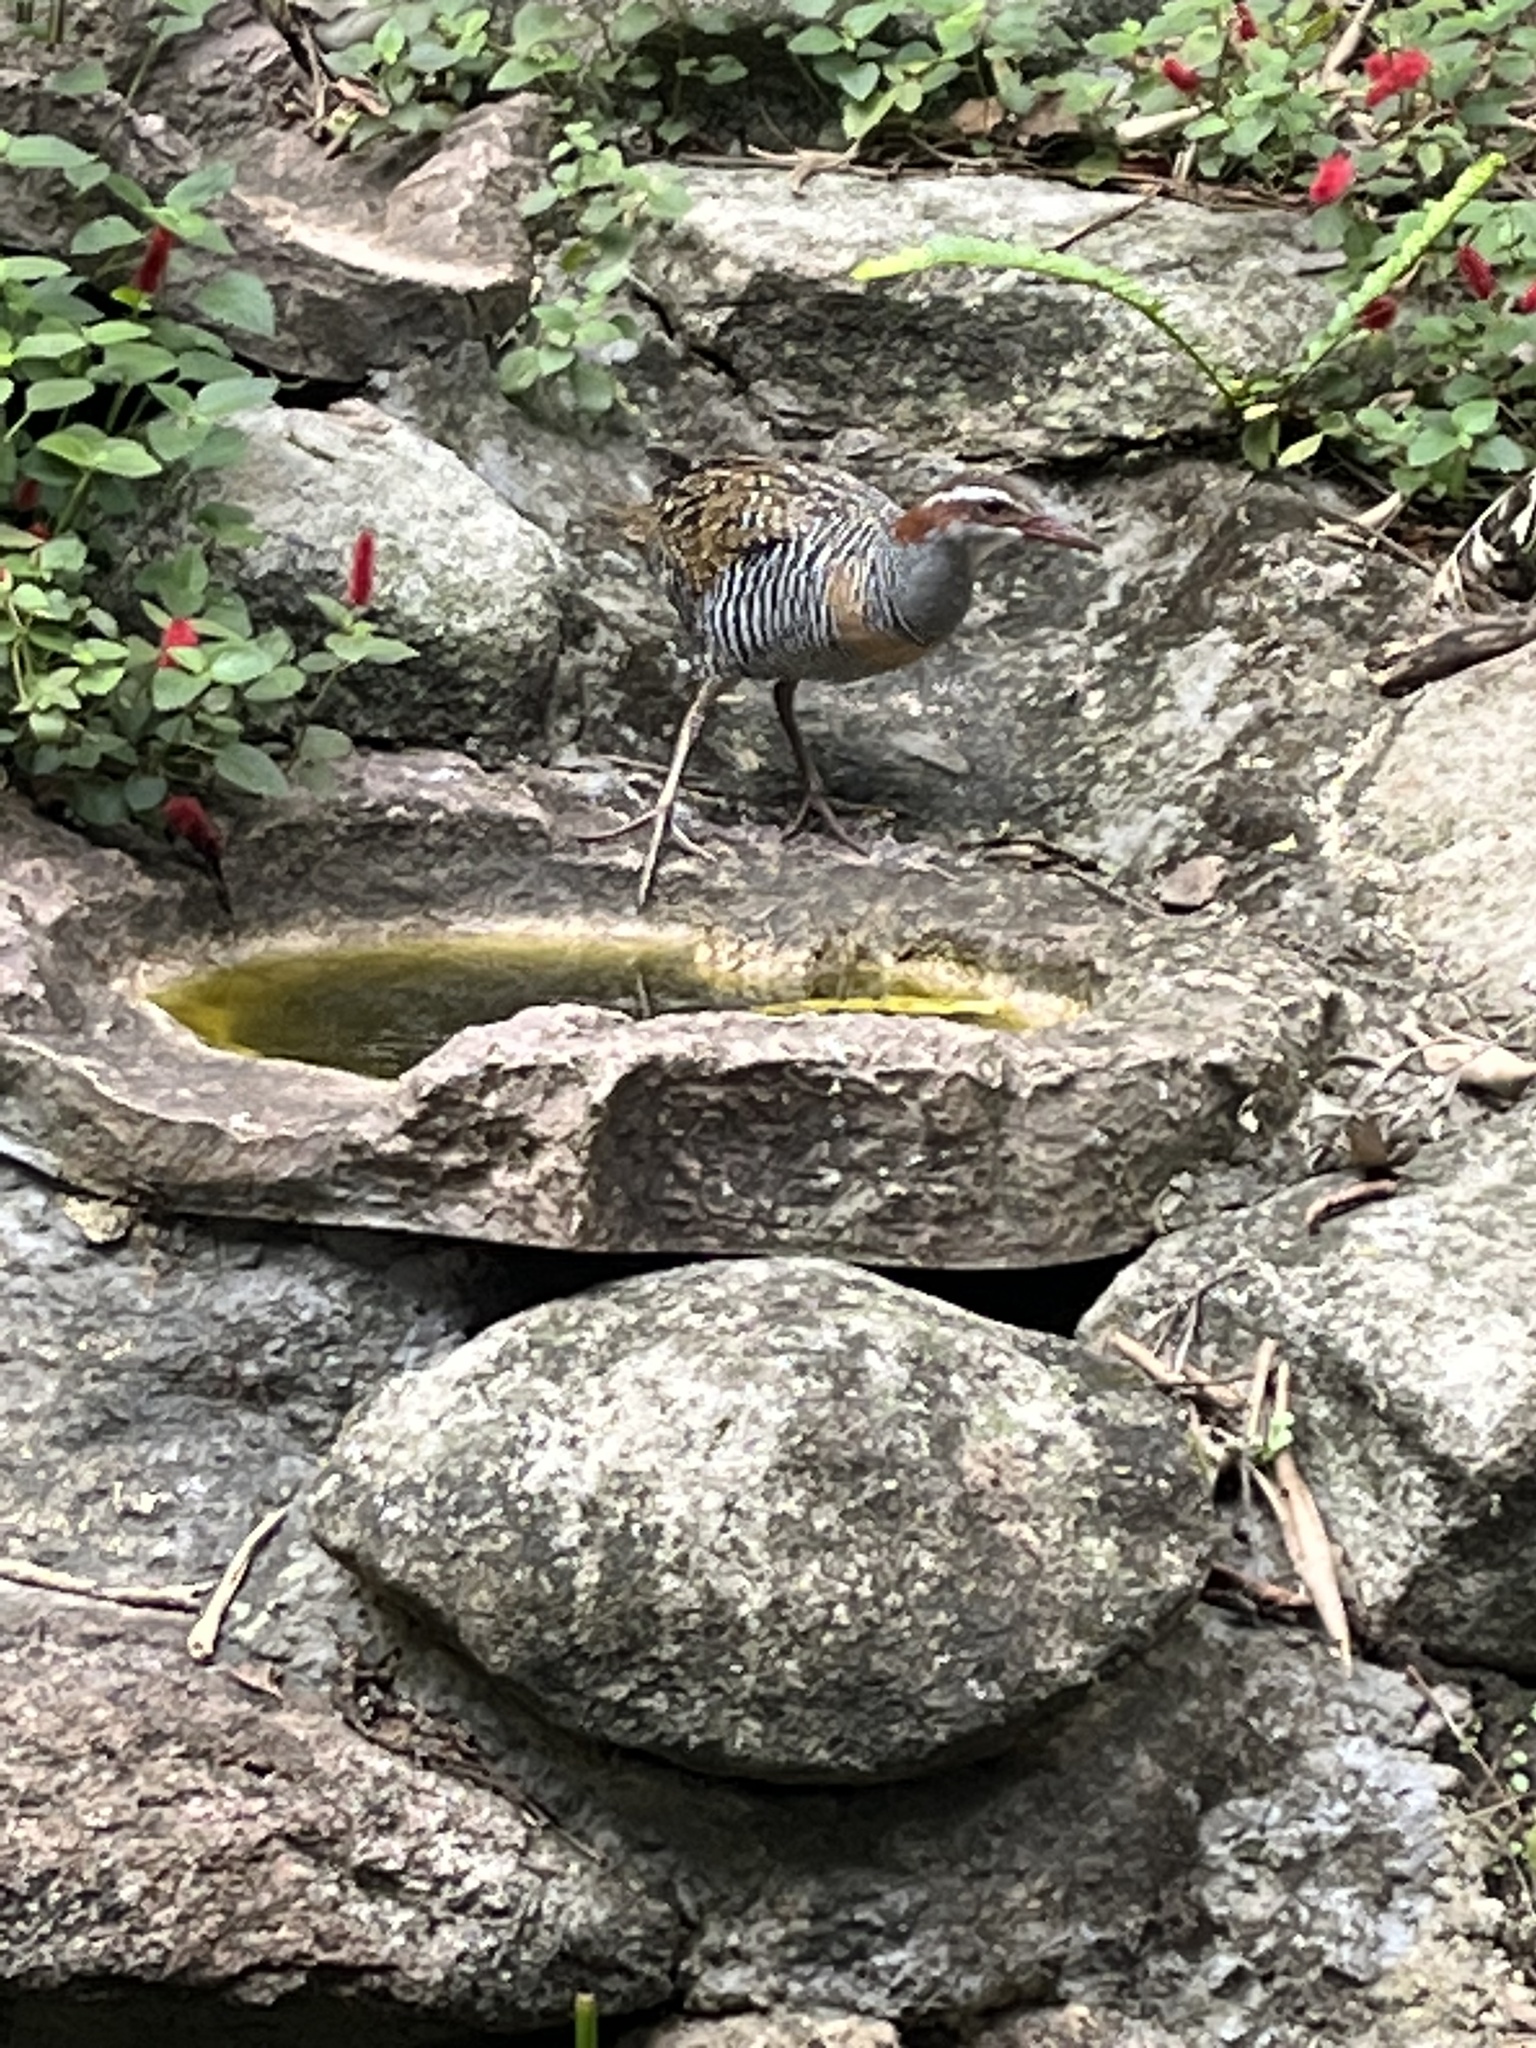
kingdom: Animalia
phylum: Chordata
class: Aves
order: Gruiformes
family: Rallidae
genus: Gallirallus
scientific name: Gallirallus philippensis
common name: Buff-banded rail
